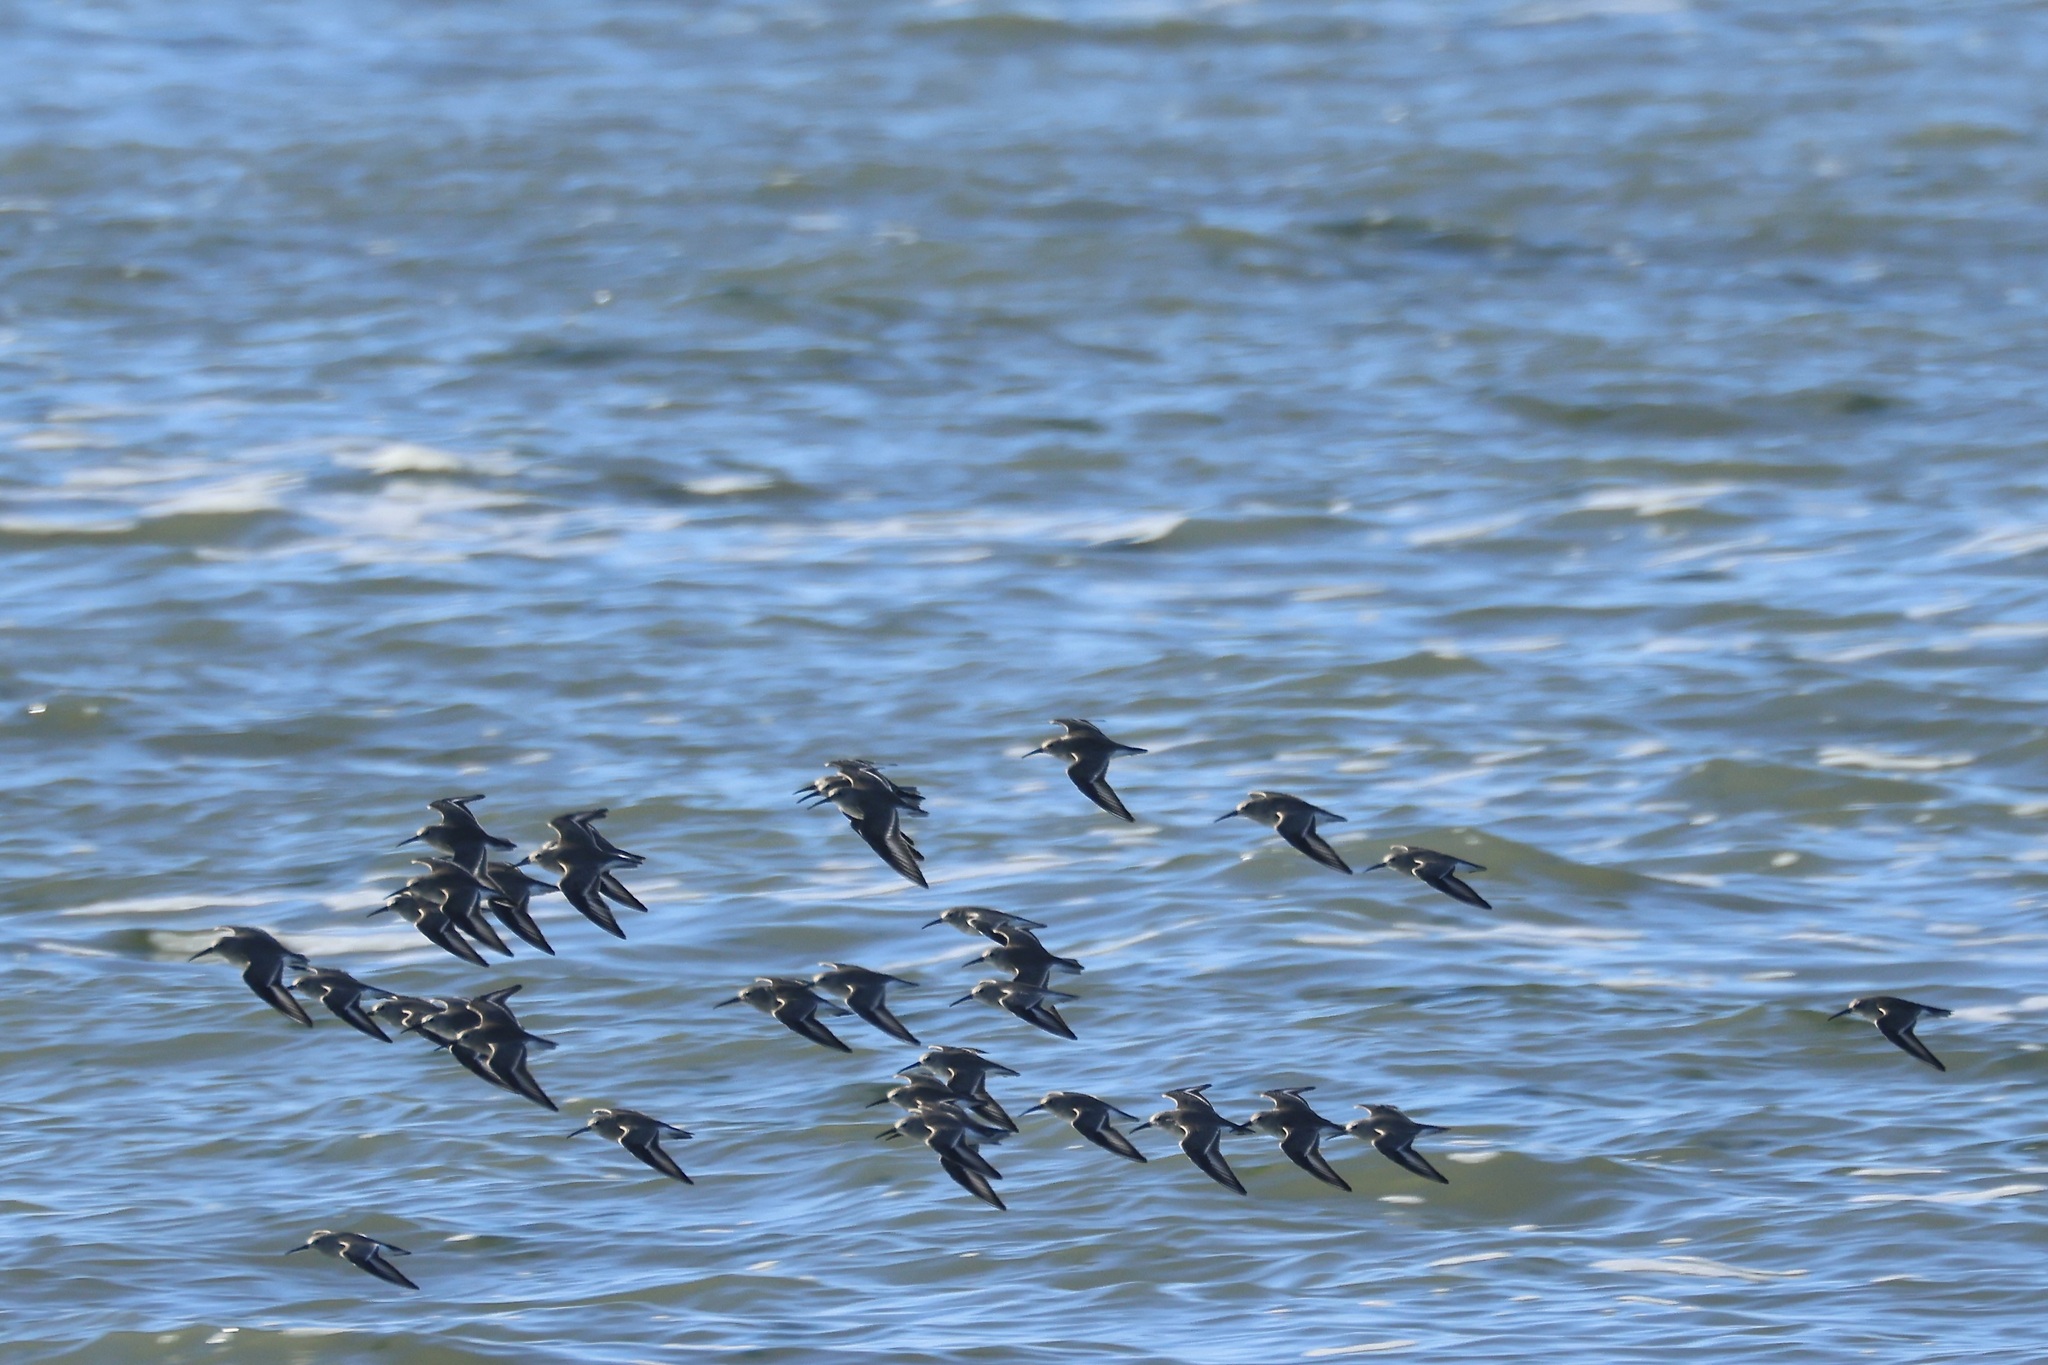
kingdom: Animalia
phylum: Chordata
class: Aves
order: Charadriiformes
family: Scolopacidae
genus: Calidris
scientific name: Calidris alpina
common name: Dunlin
